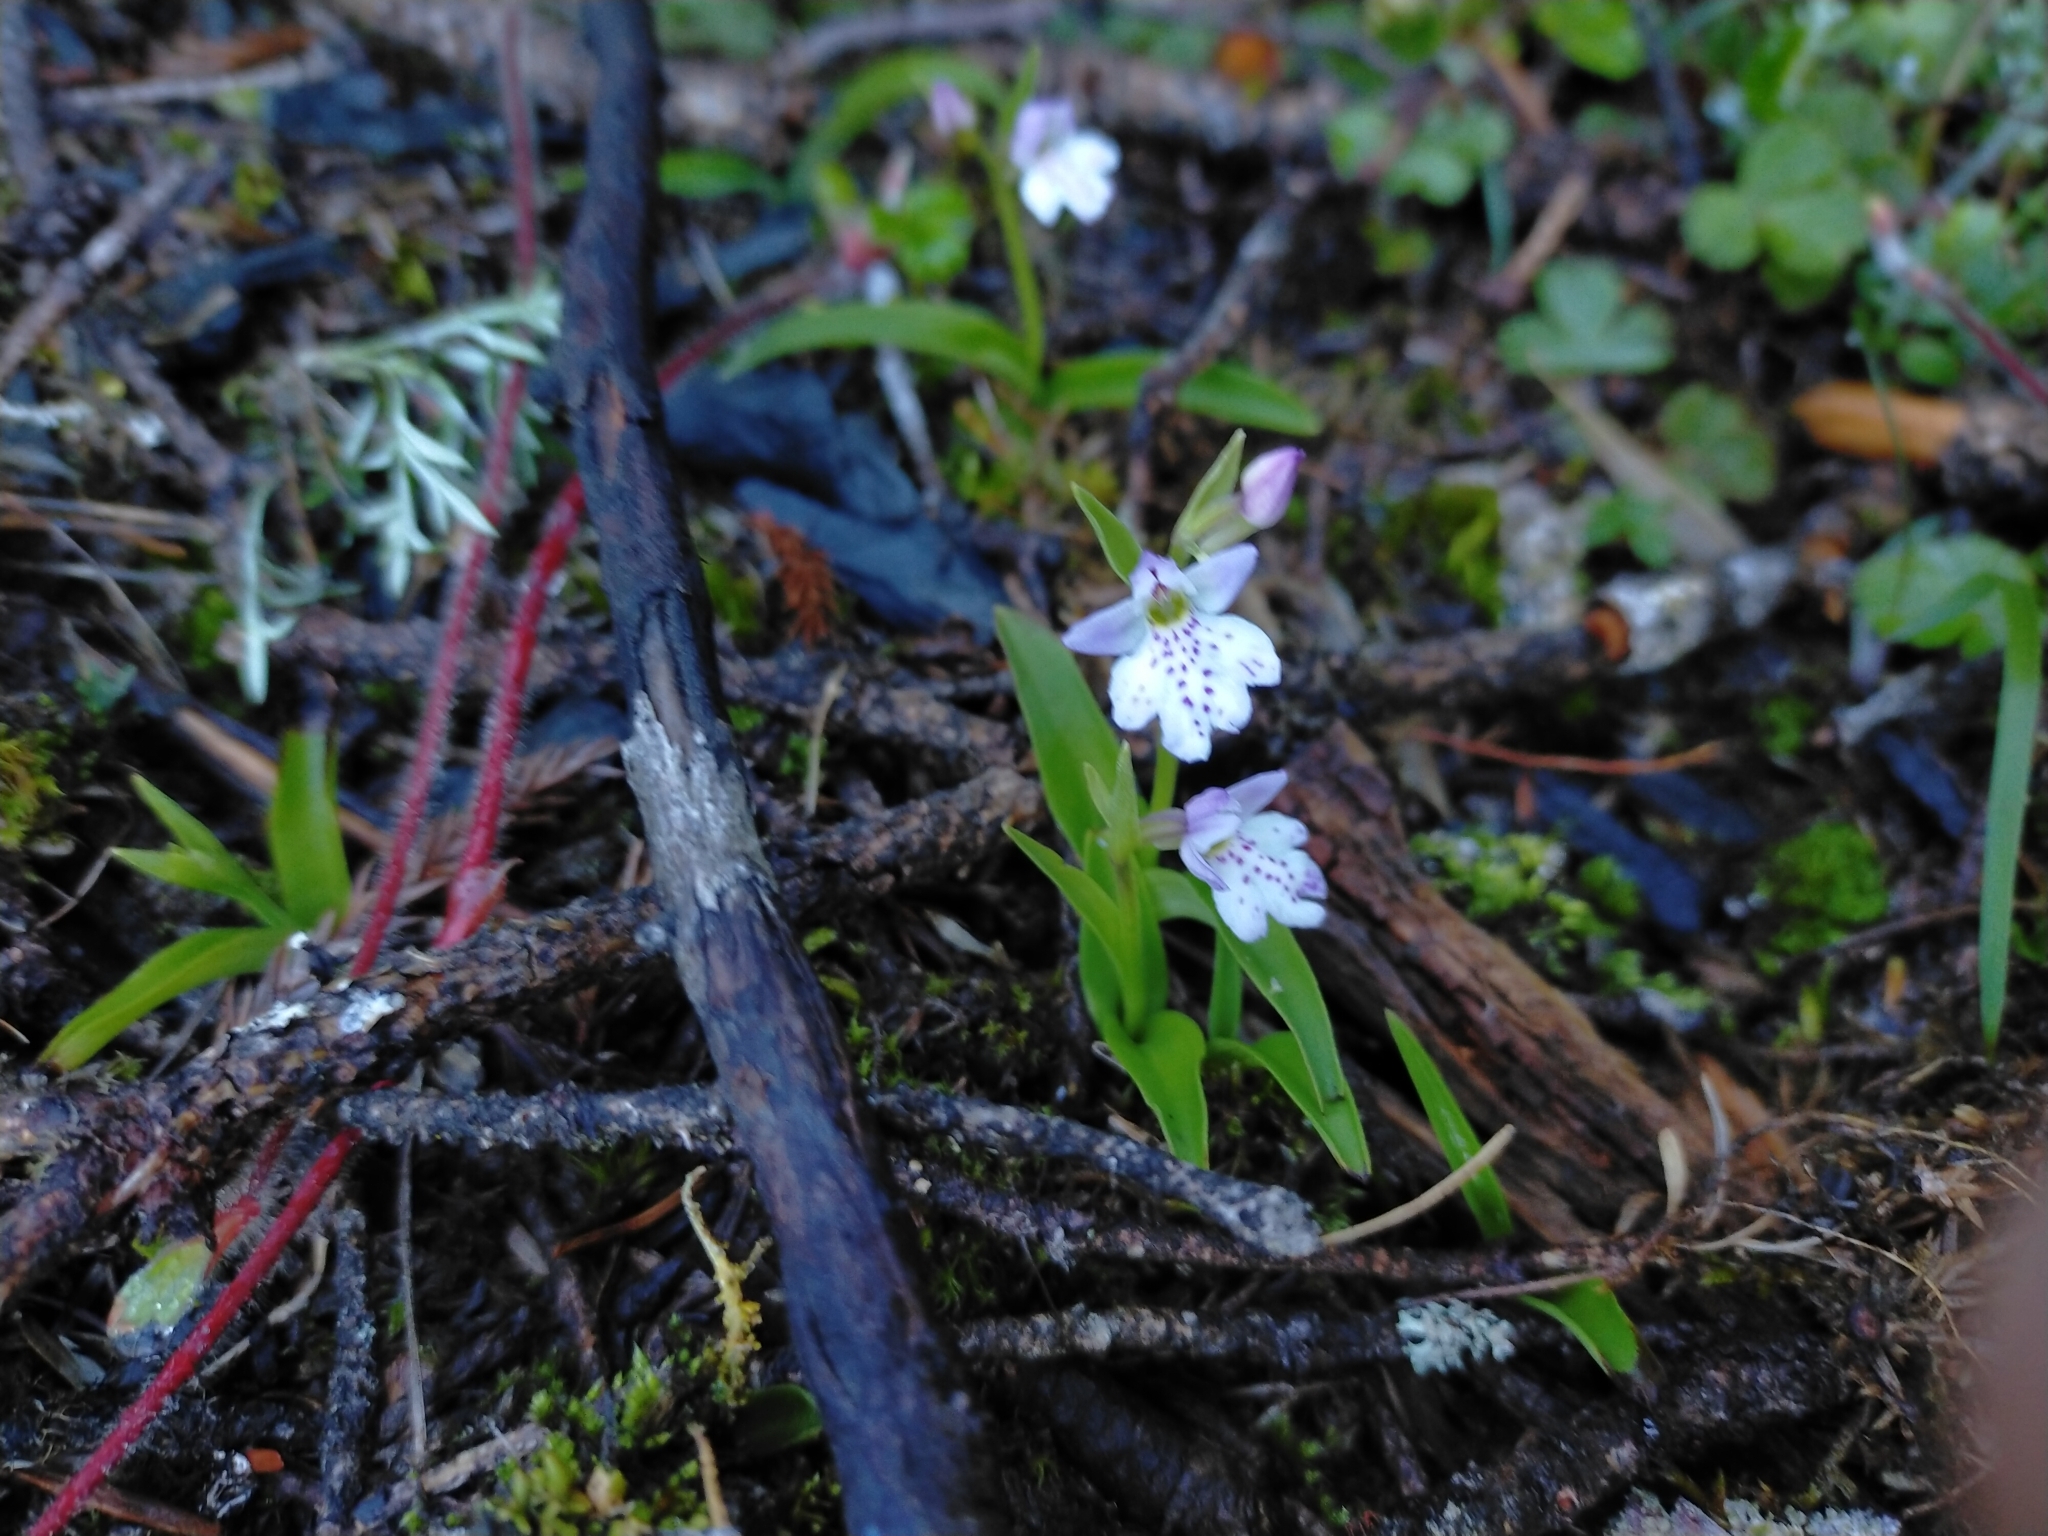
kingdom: Plantae
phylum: Tracheophyta
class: Liliopsida
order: Asparagales
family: Orchidaceae
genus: Hemipilia
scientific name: Hemipilia tominagae
